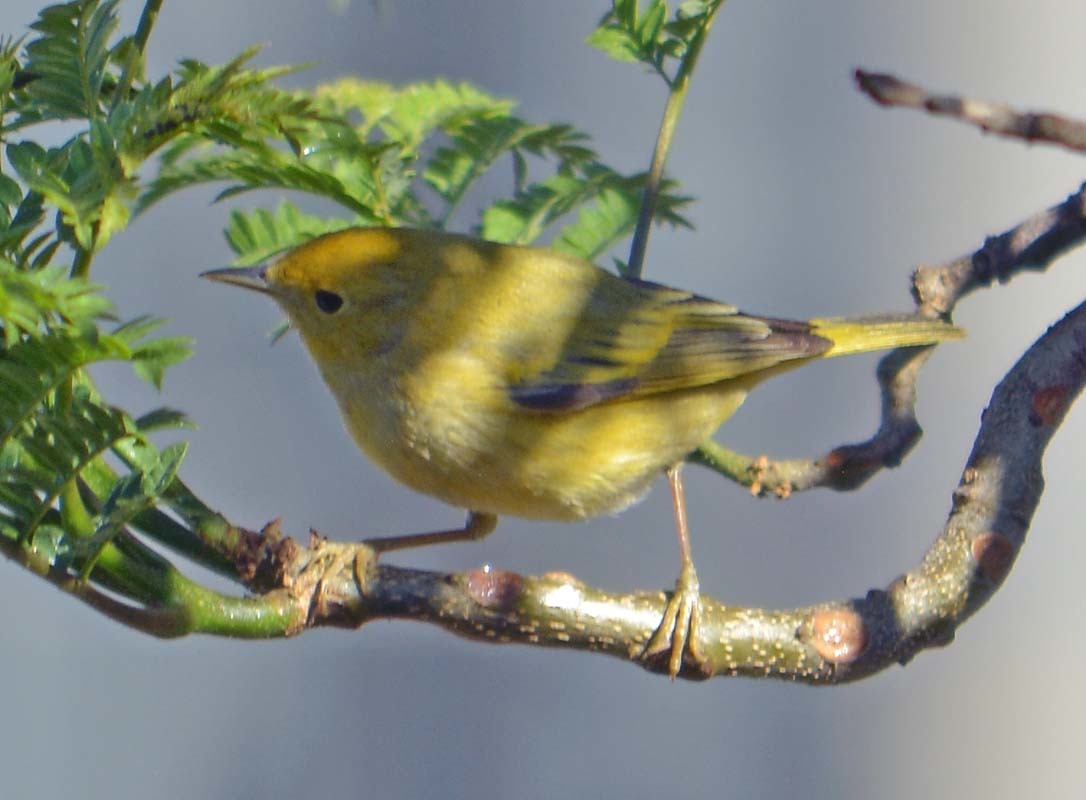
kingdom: Animalia
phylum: Chordata
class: Aves
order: Passeriformes
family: Parulidae
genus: Setophaga
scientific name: Setophaga petechia
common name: Yellow warbler
